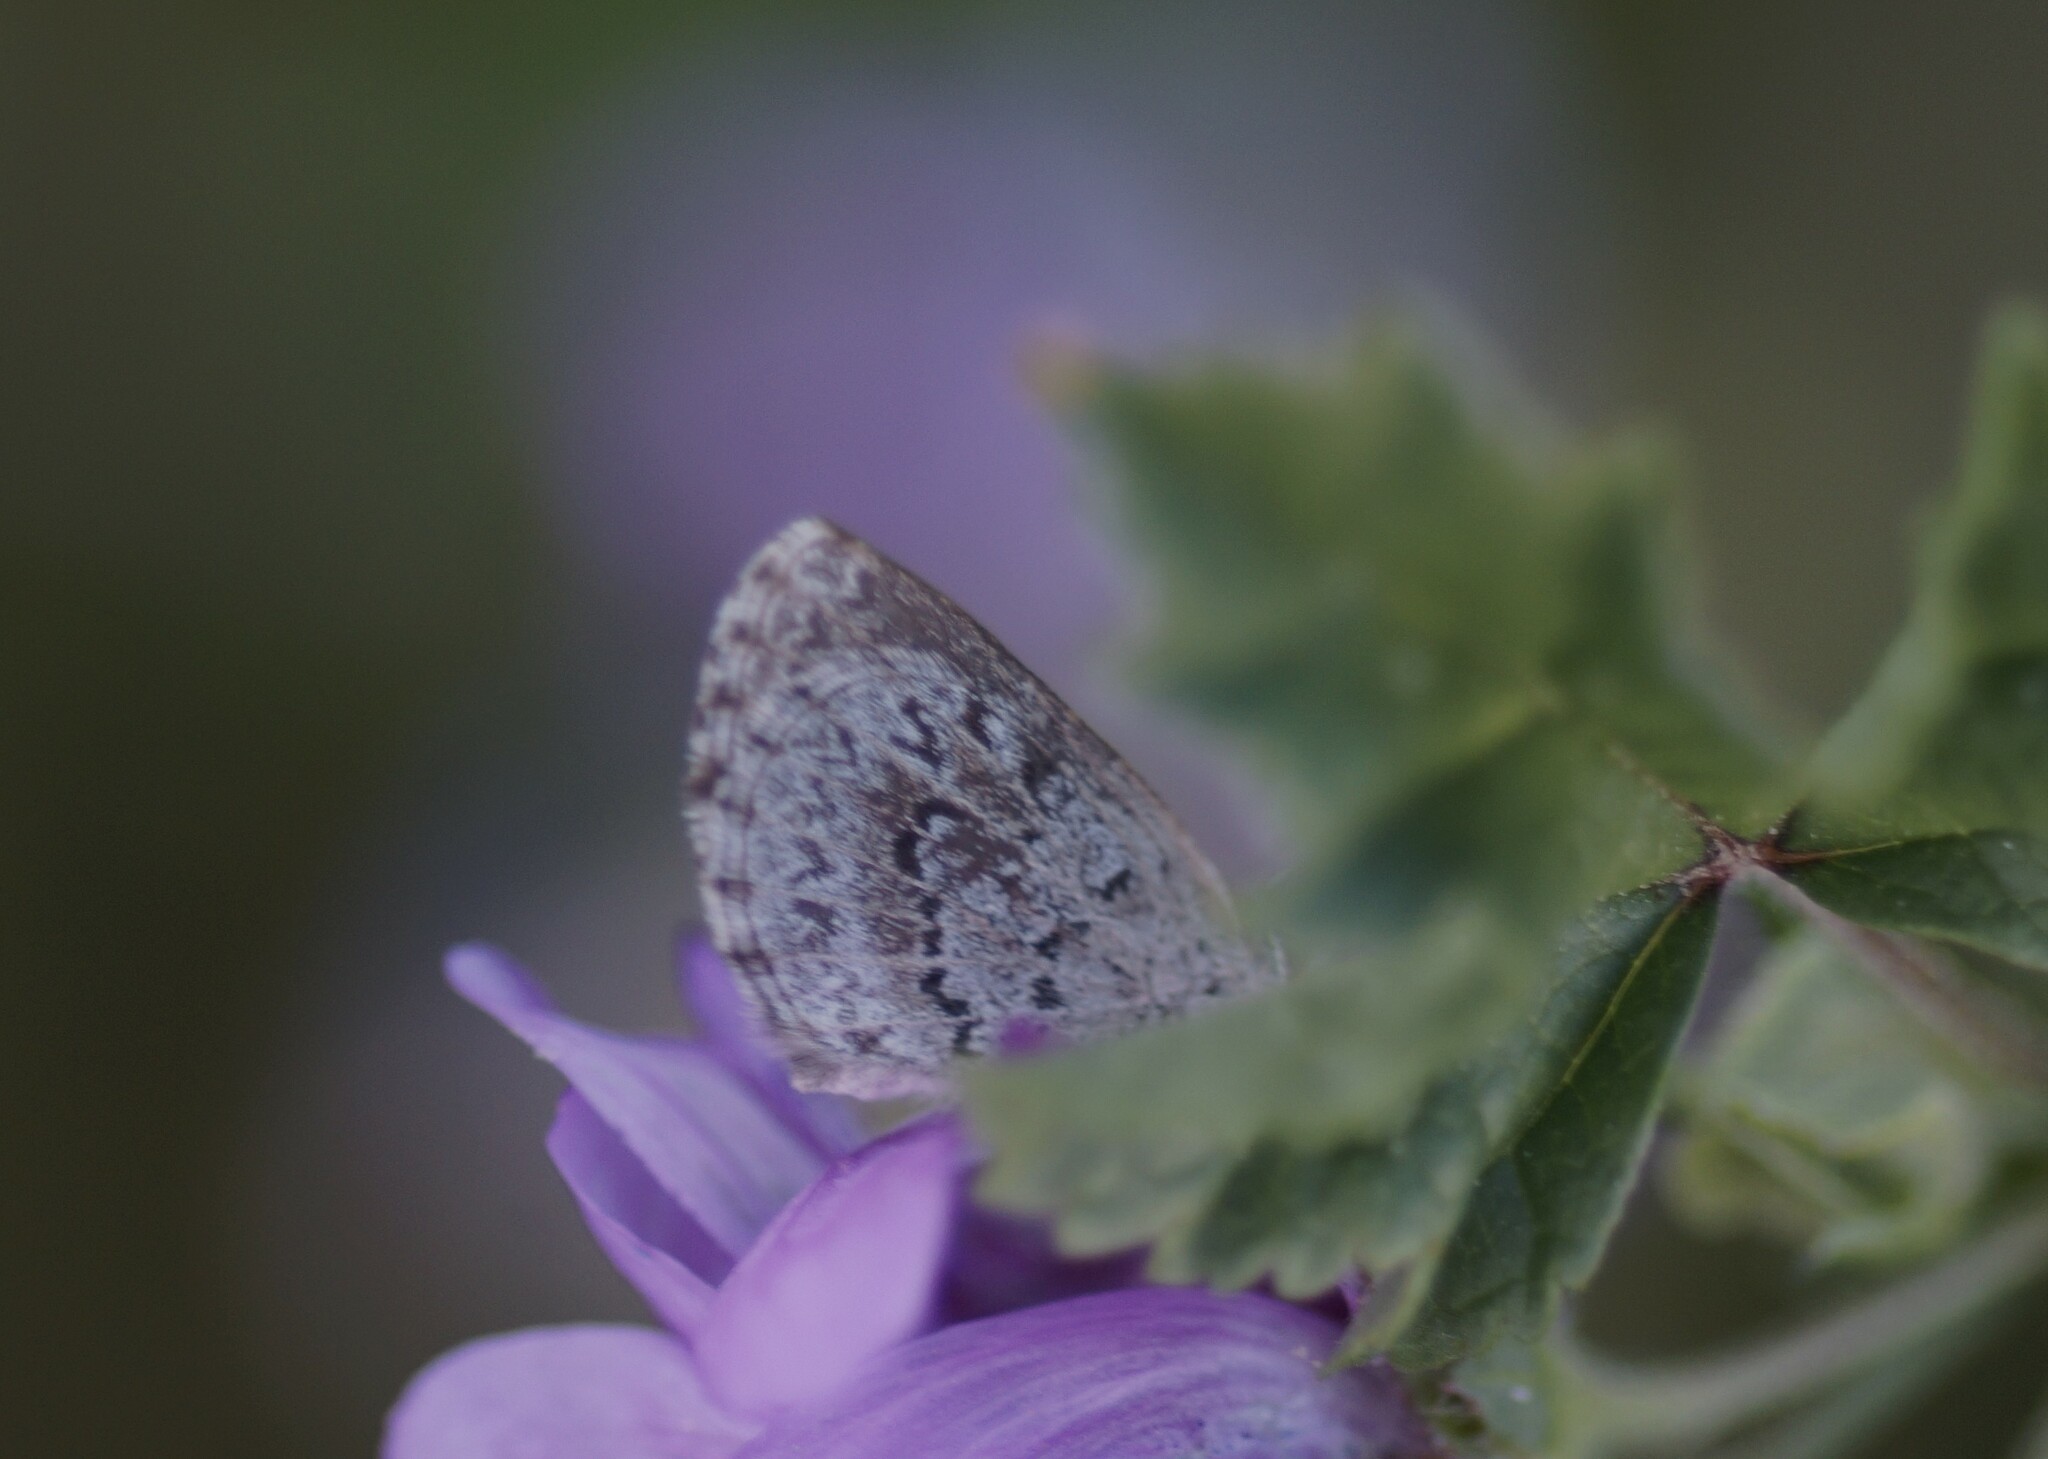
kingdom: Animalia
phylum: Arthropoda
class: Insecta
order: Lepidoptera
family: Lycaenidae
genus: Zizina
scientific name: Zizina oxleyi
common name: Southern blue
